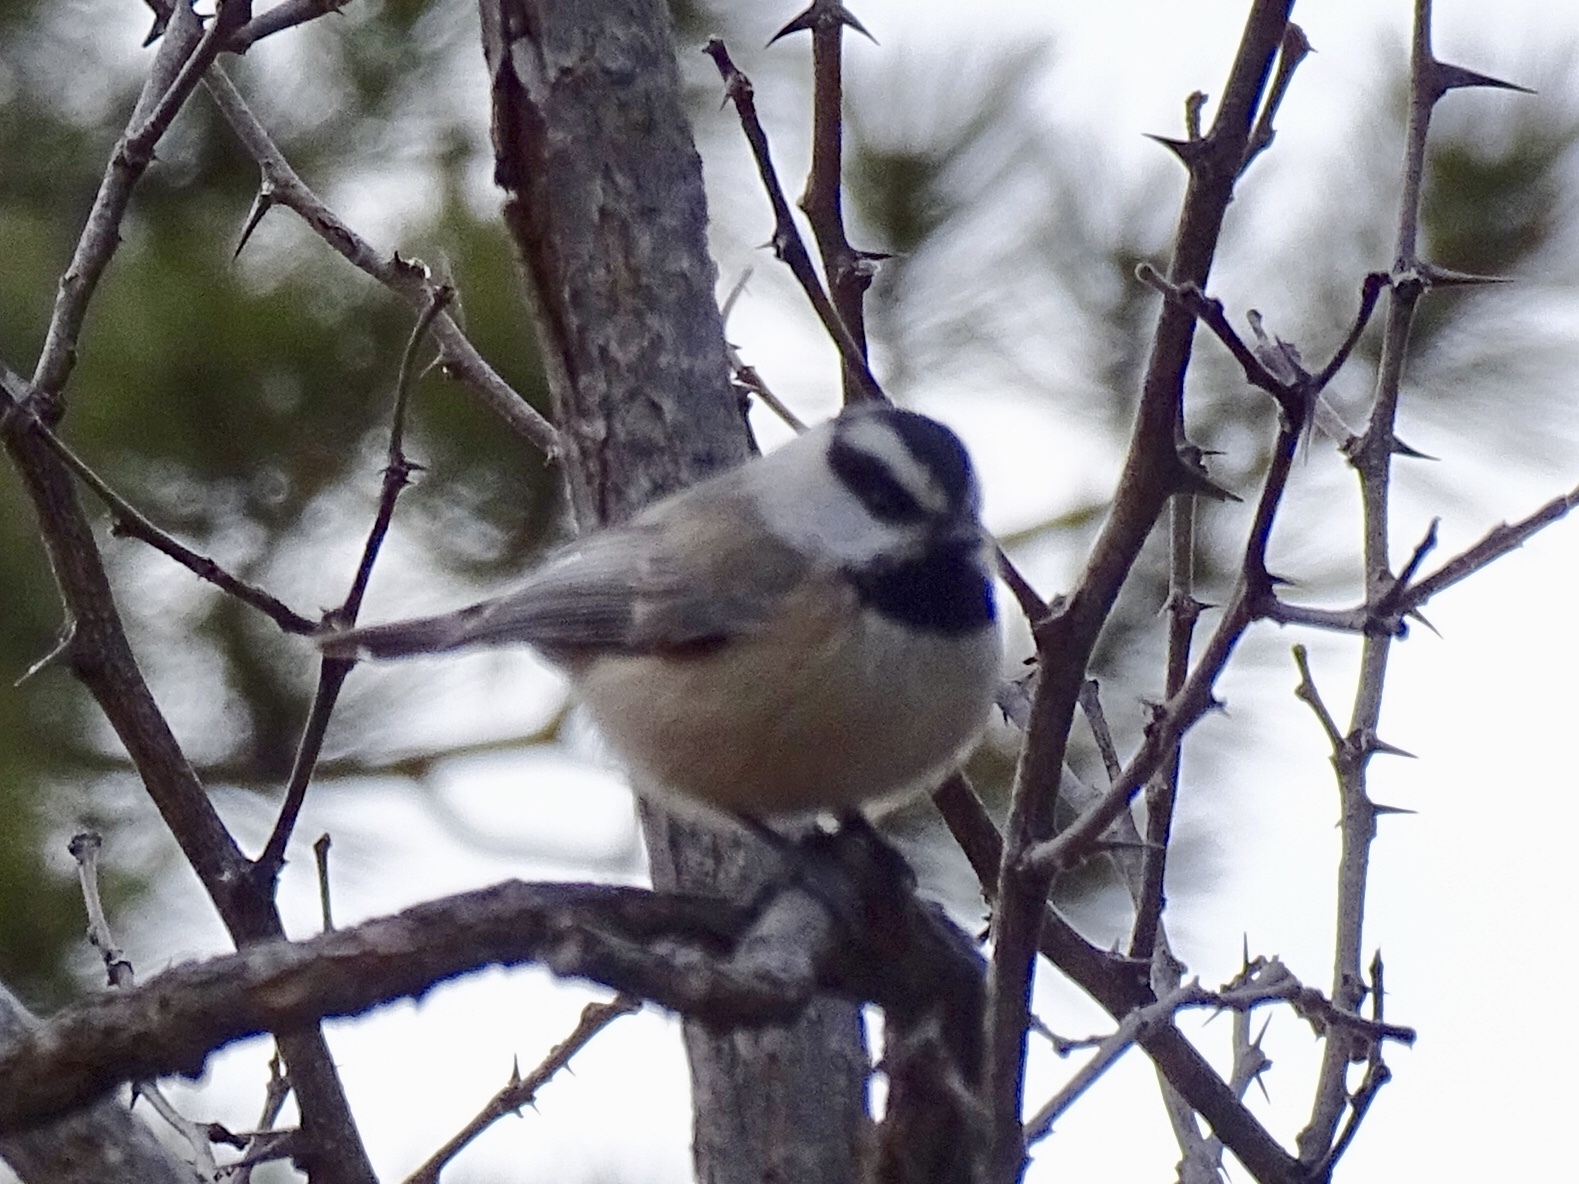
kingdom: Animalia
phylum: Chordata
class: Aves
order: Passeriformes
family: Paridae
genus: Poecile
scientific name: Poecile gambeli
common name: Mountain chickadee
